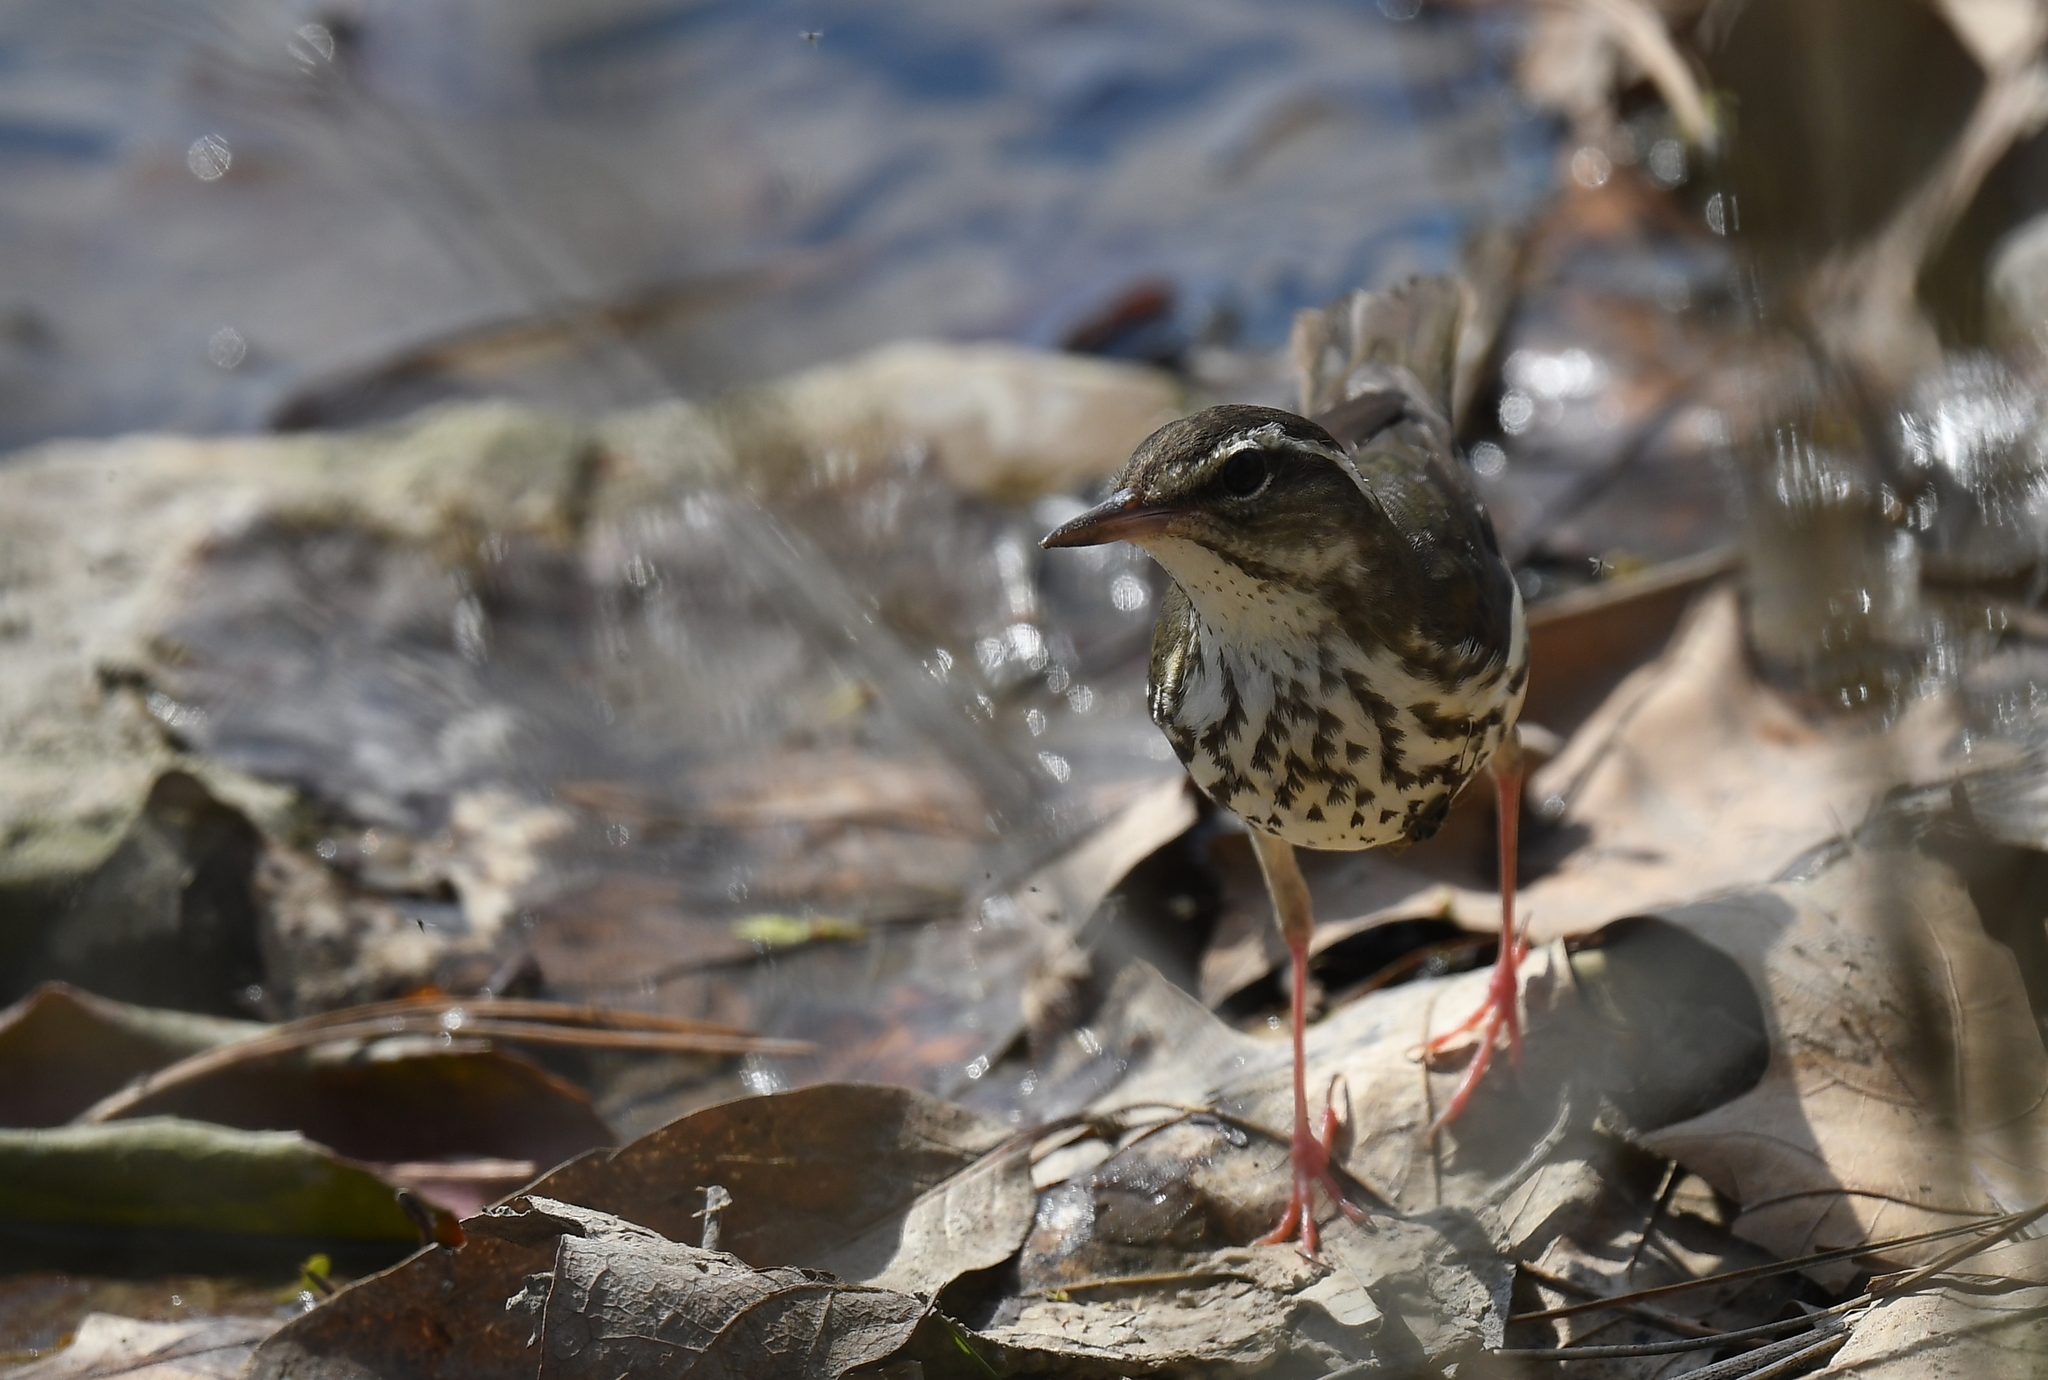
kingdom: Animalia
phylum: Chordata
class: Aves
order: Passeriformes
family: Parulidae
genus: Parkesia
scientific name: Parkesia motacilla
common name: Louisiana waterthrush
